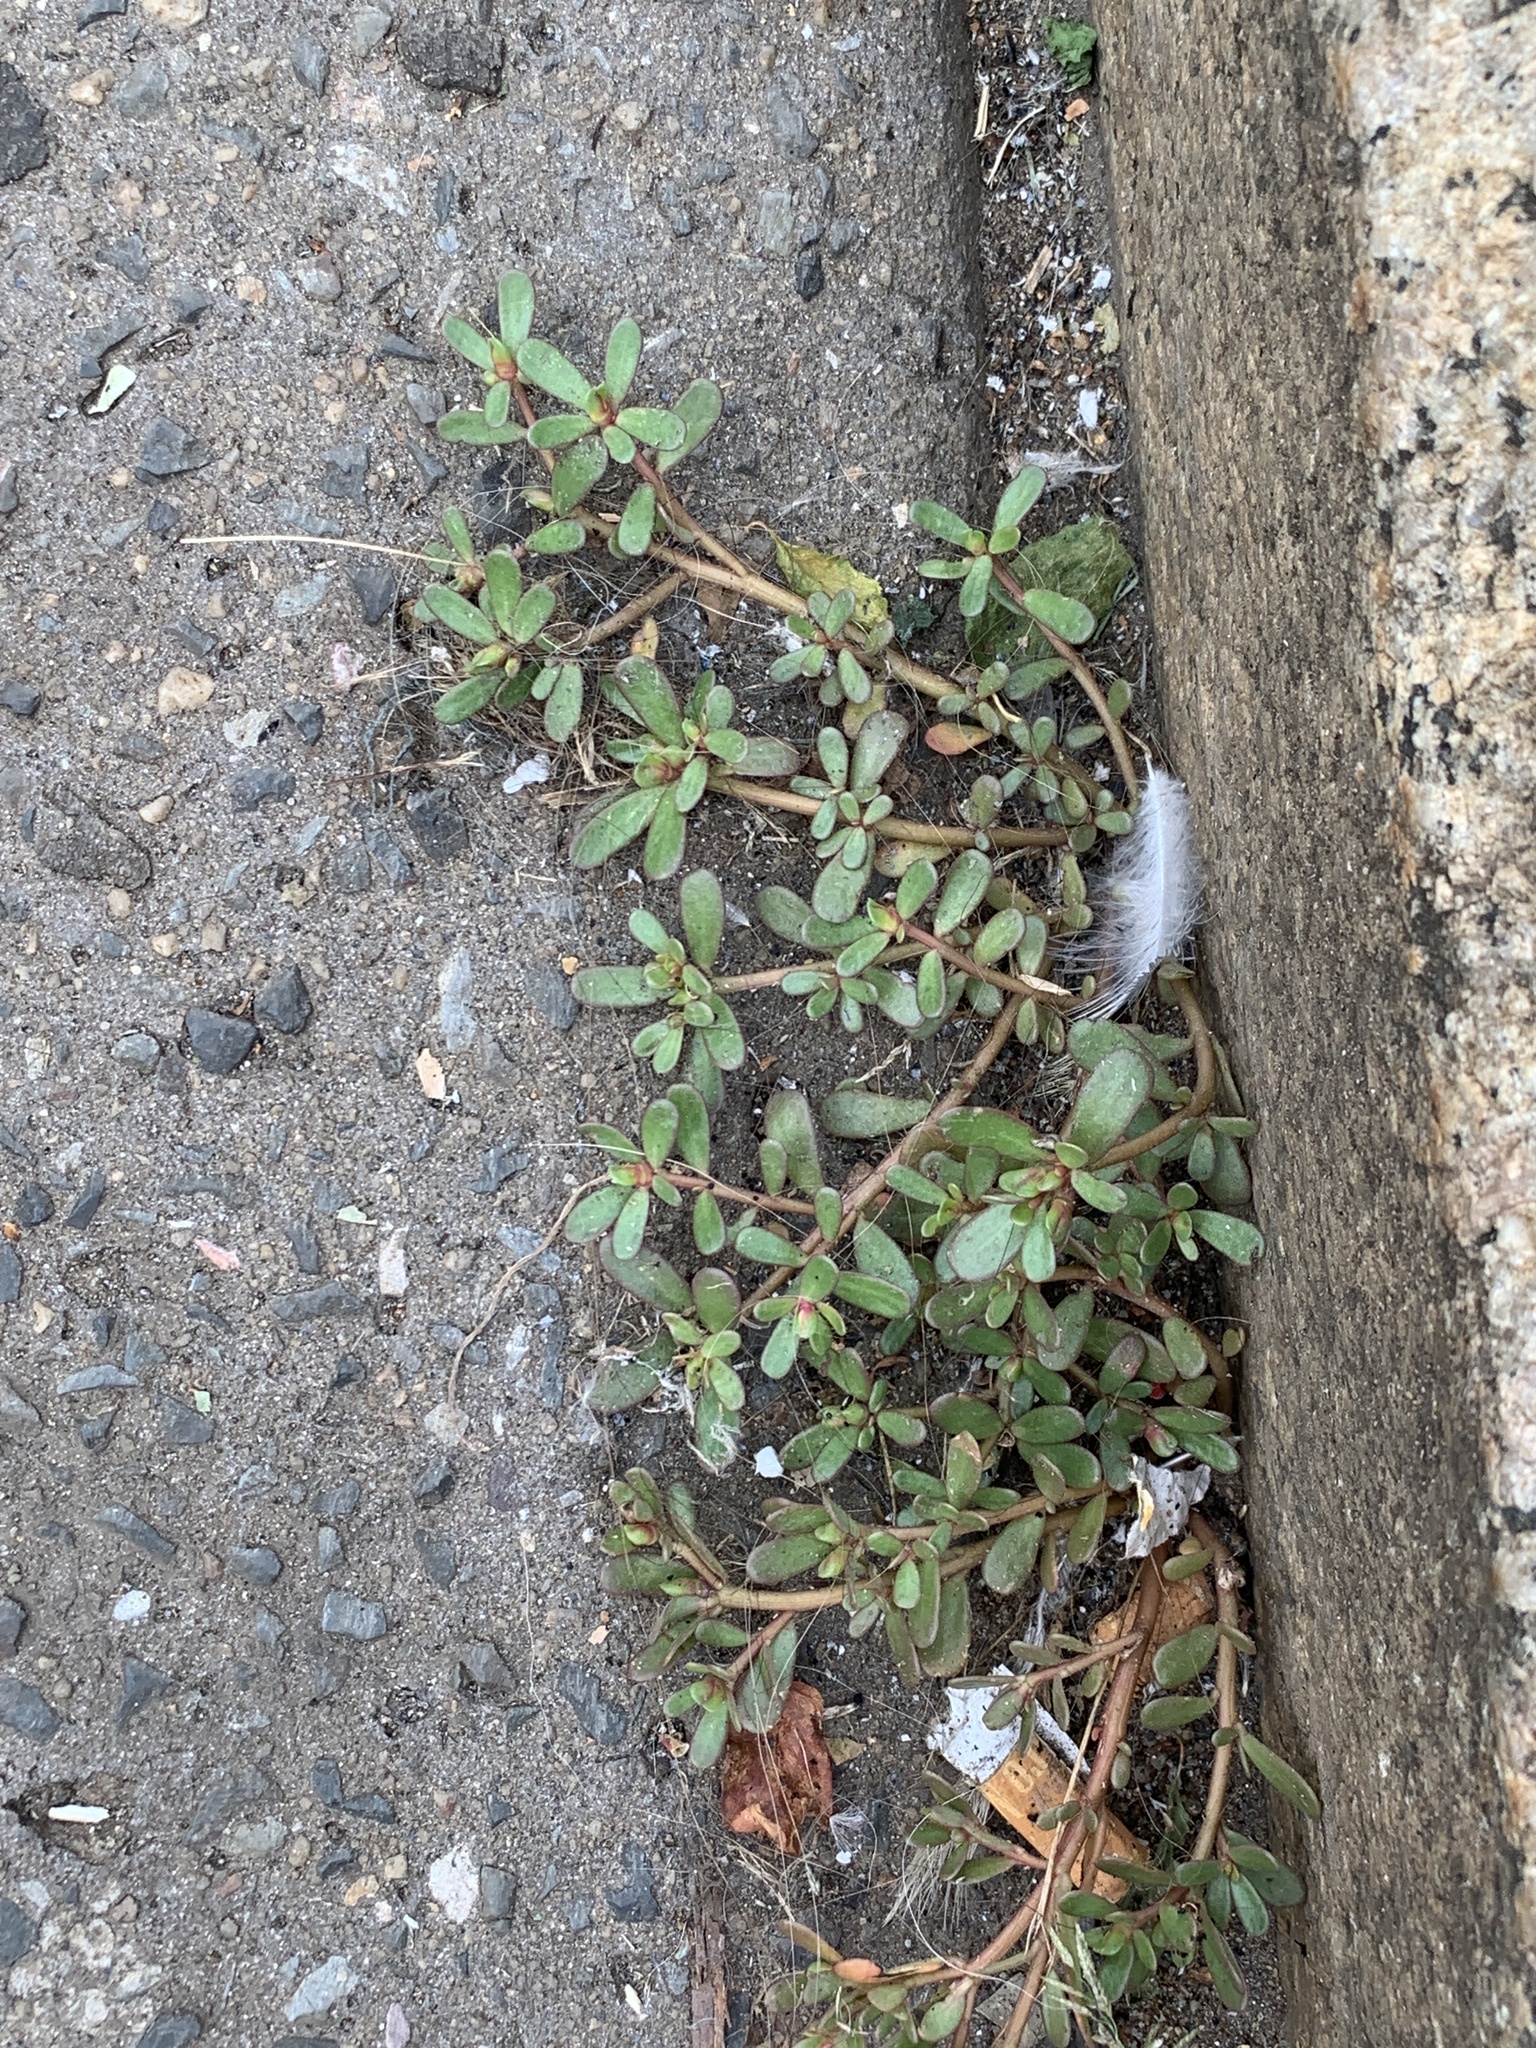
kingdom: Plantae
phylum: Tracheophyta
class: Magnoliopsida
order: Caryophyllales
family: Portulacaceae
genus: Portulaca
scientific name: Portulaca oleracea
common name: Common purslane
